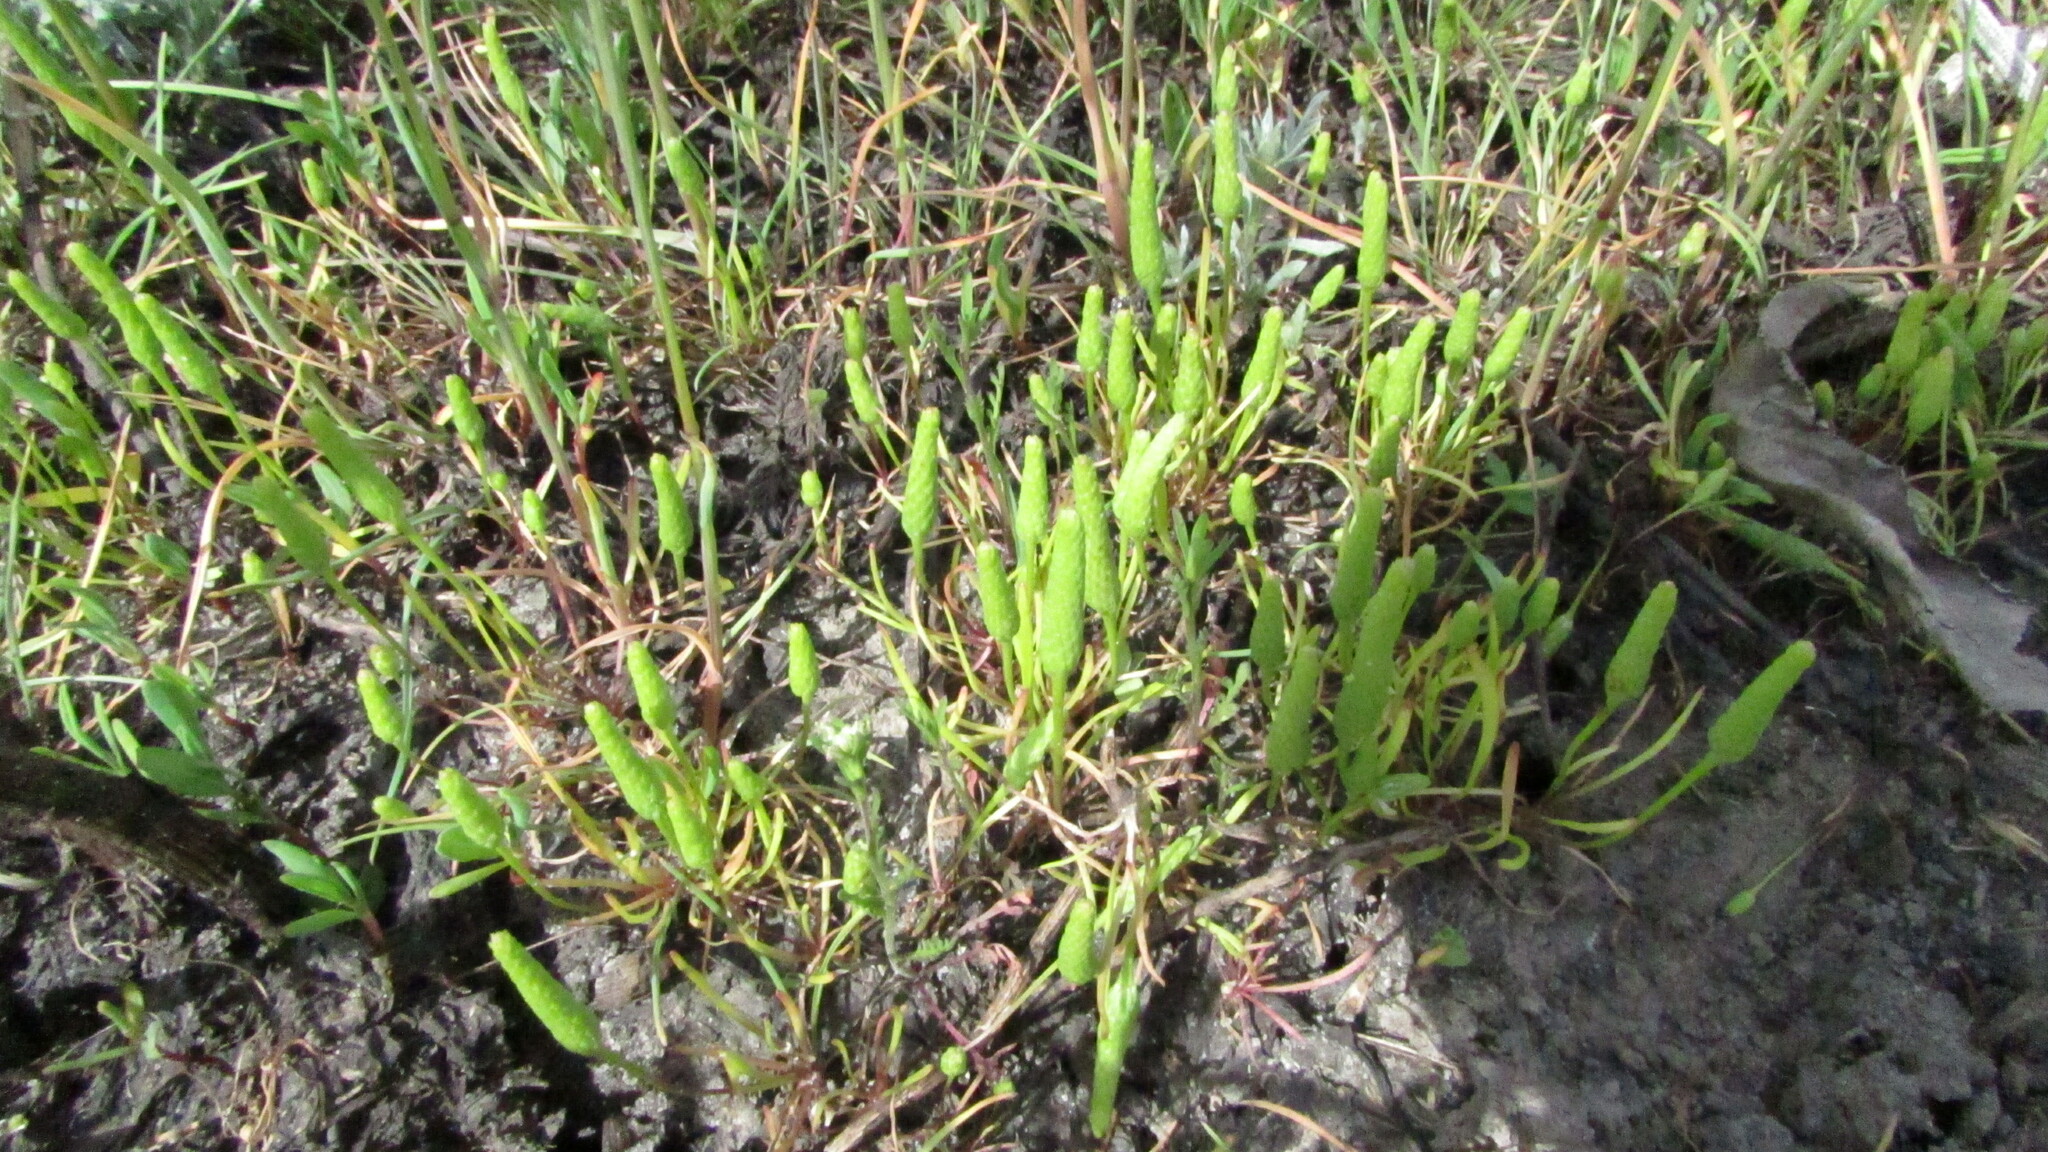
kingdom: Plantae
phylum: Tracheophyta
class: Magnoliopsida
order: Ranunculales
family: Ranunculaceae
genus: Myosurus
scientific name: Myosurus minimus
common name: Mousetail
